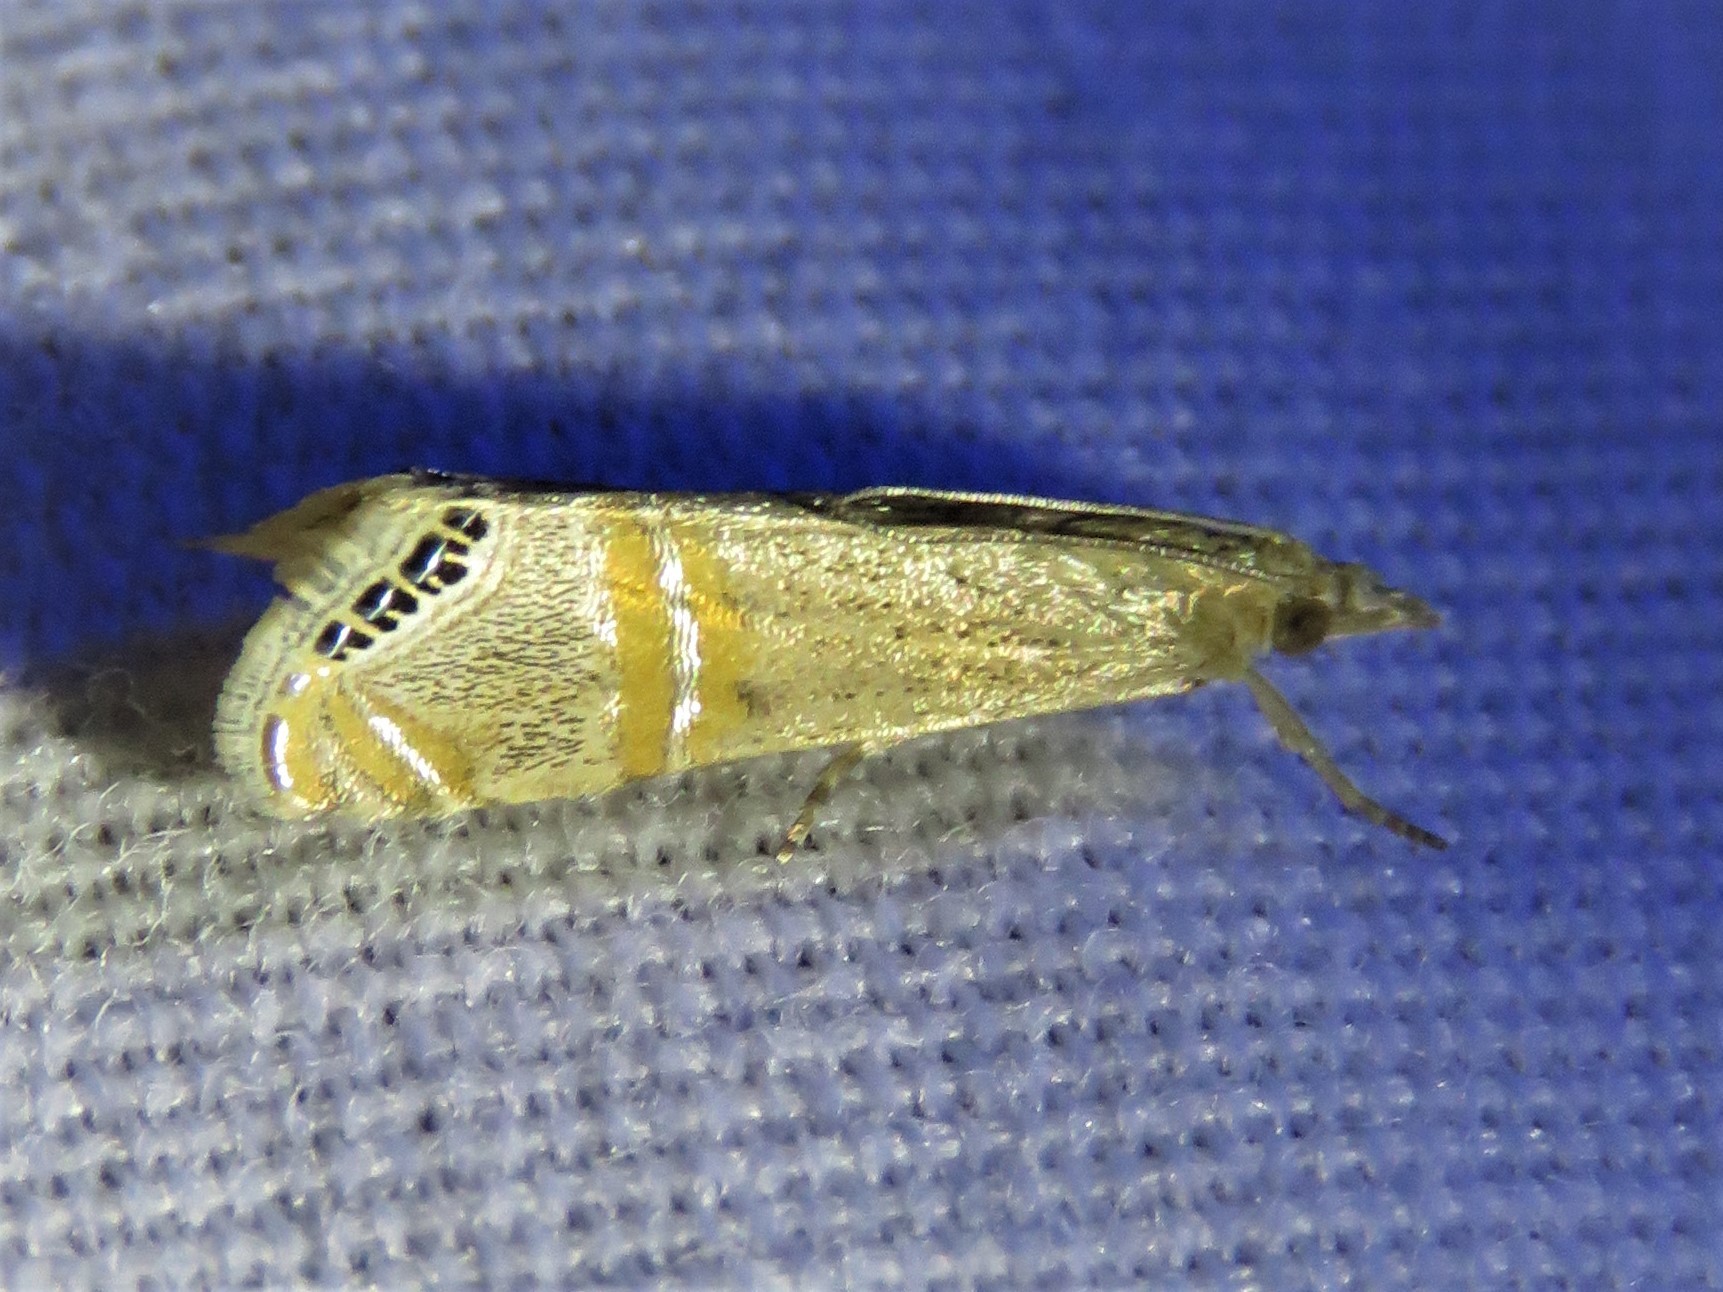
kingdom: Animalia
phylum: Arthropoda
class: Insecta
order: Lepidoptera
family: Crambidae
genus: Euchromius
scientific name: Euchromius ocellea
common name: Necklace veneer moth
